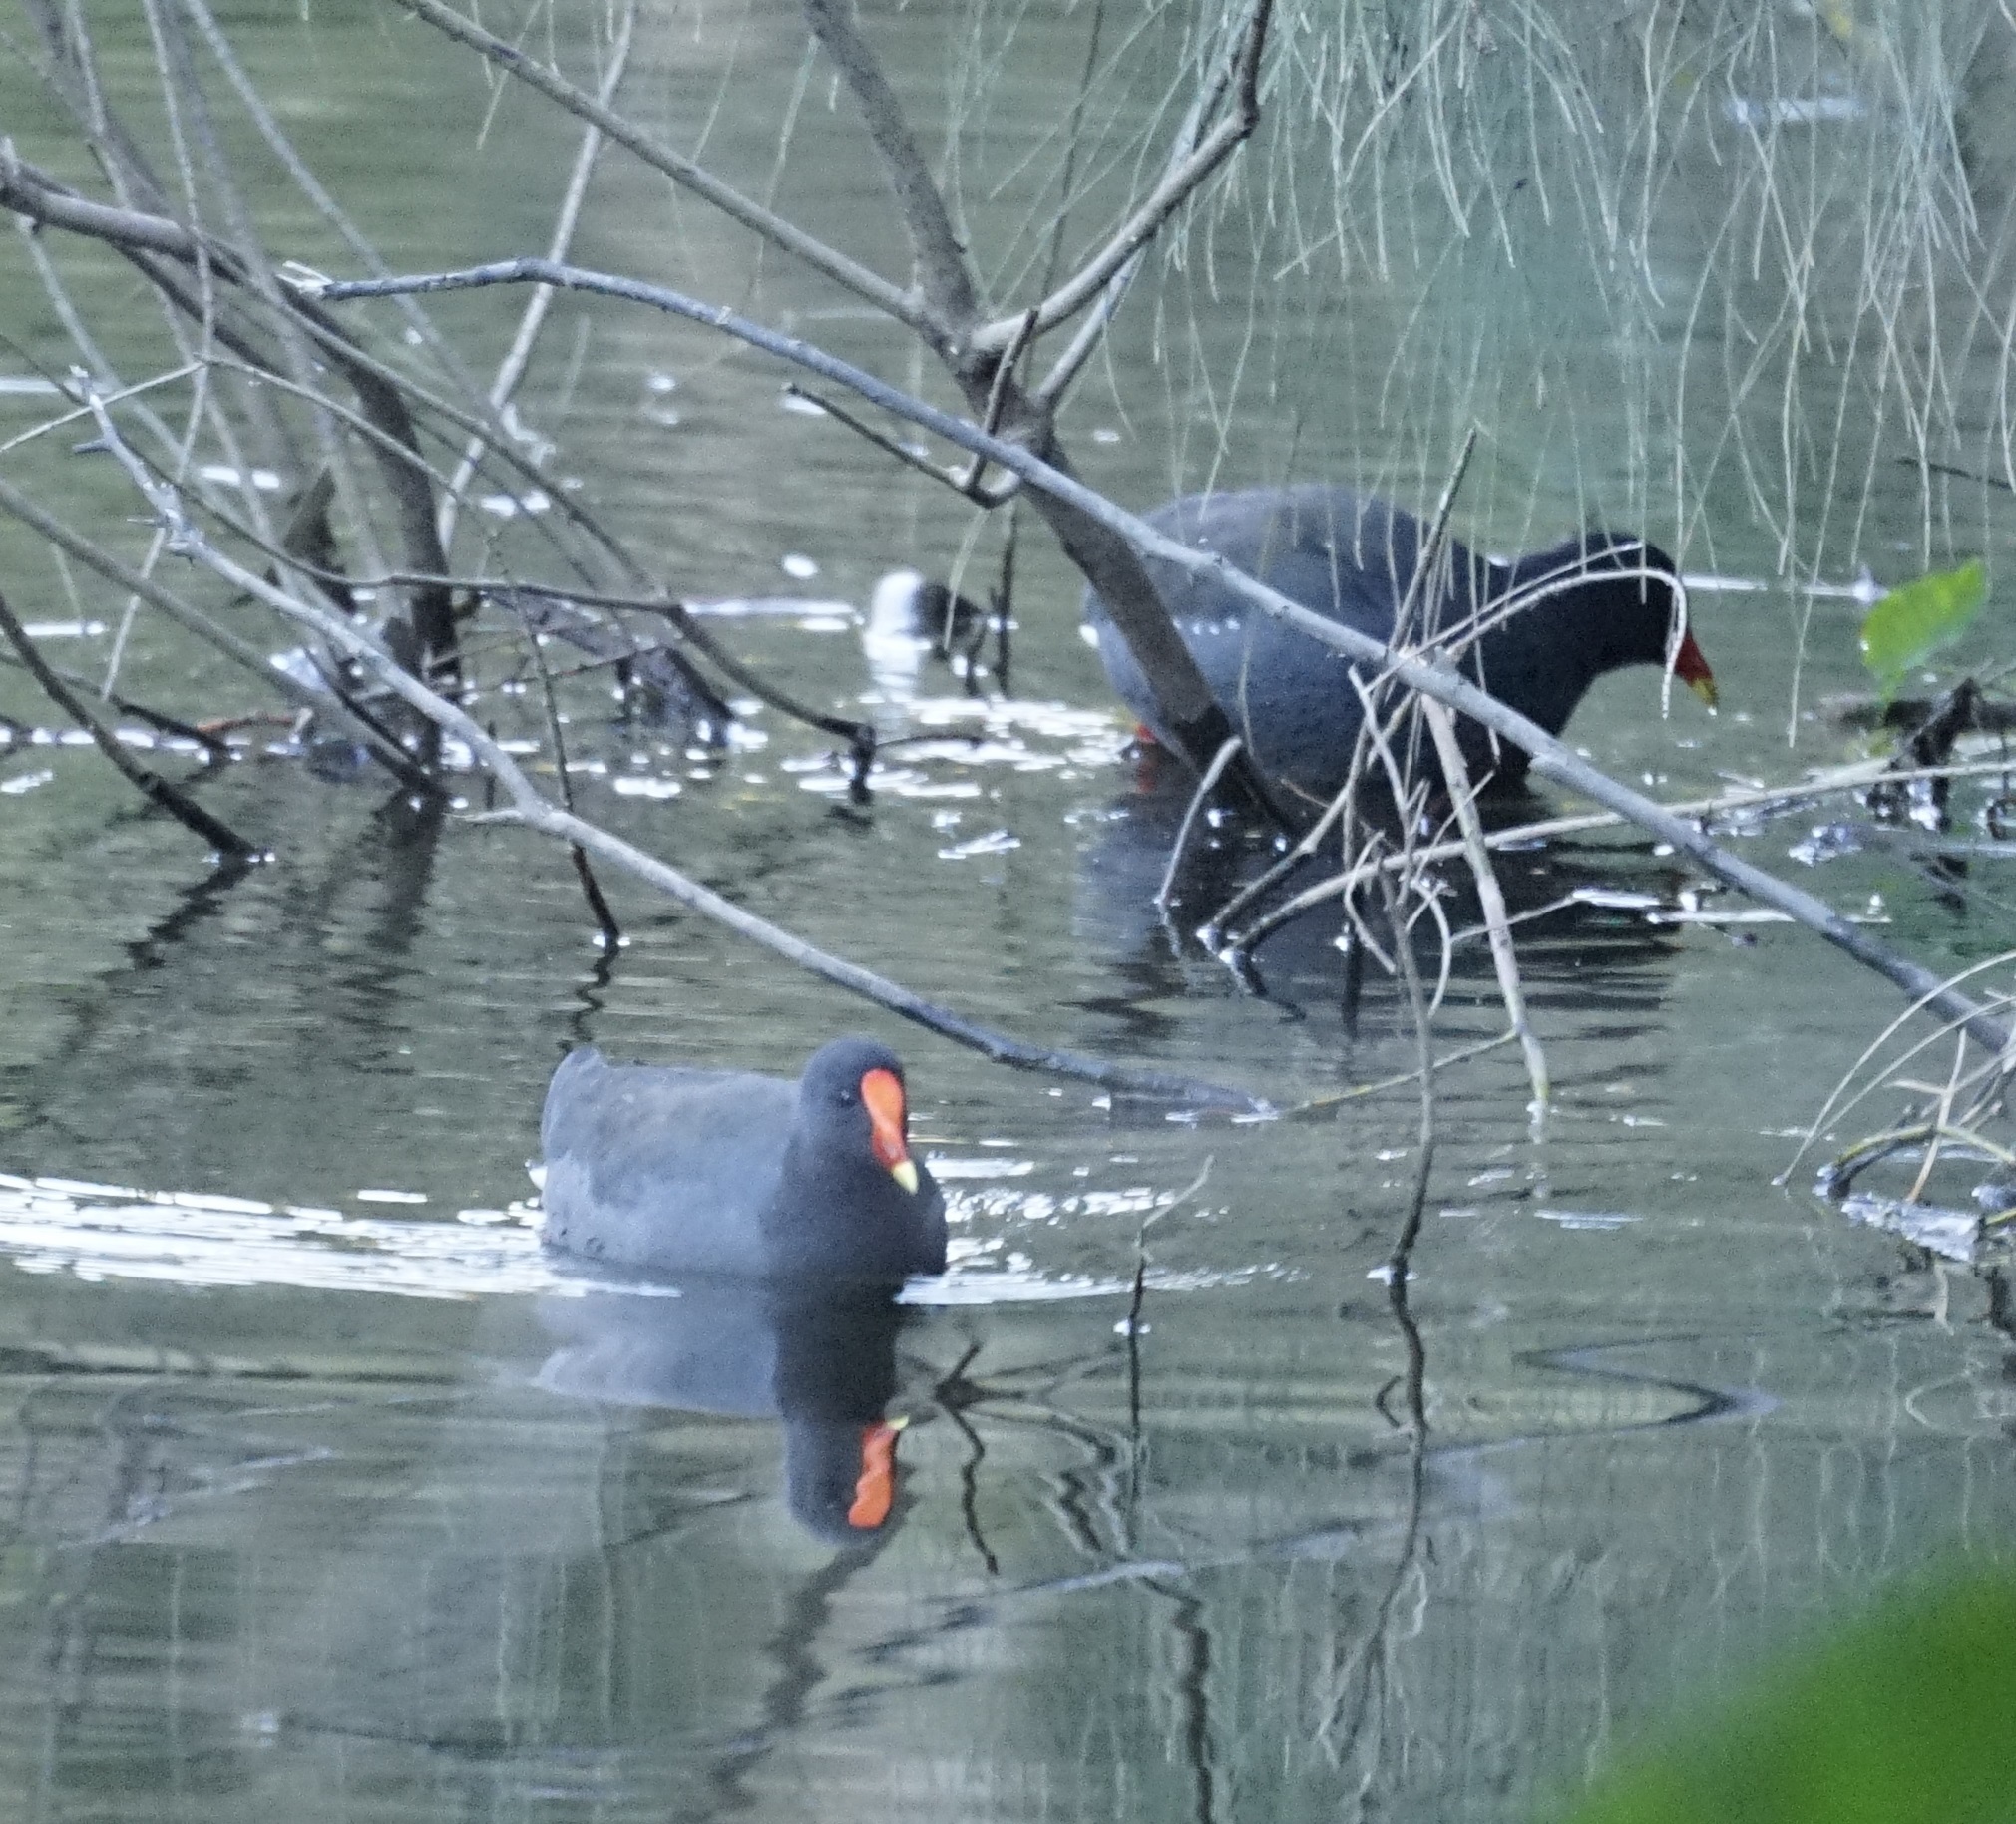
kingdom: Animalia
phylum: Chordata
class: Aves
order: Gruiformes
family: Rallidae
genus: Gallinula
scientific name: Gallinula tenebrosa
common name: Dusky moorhen
